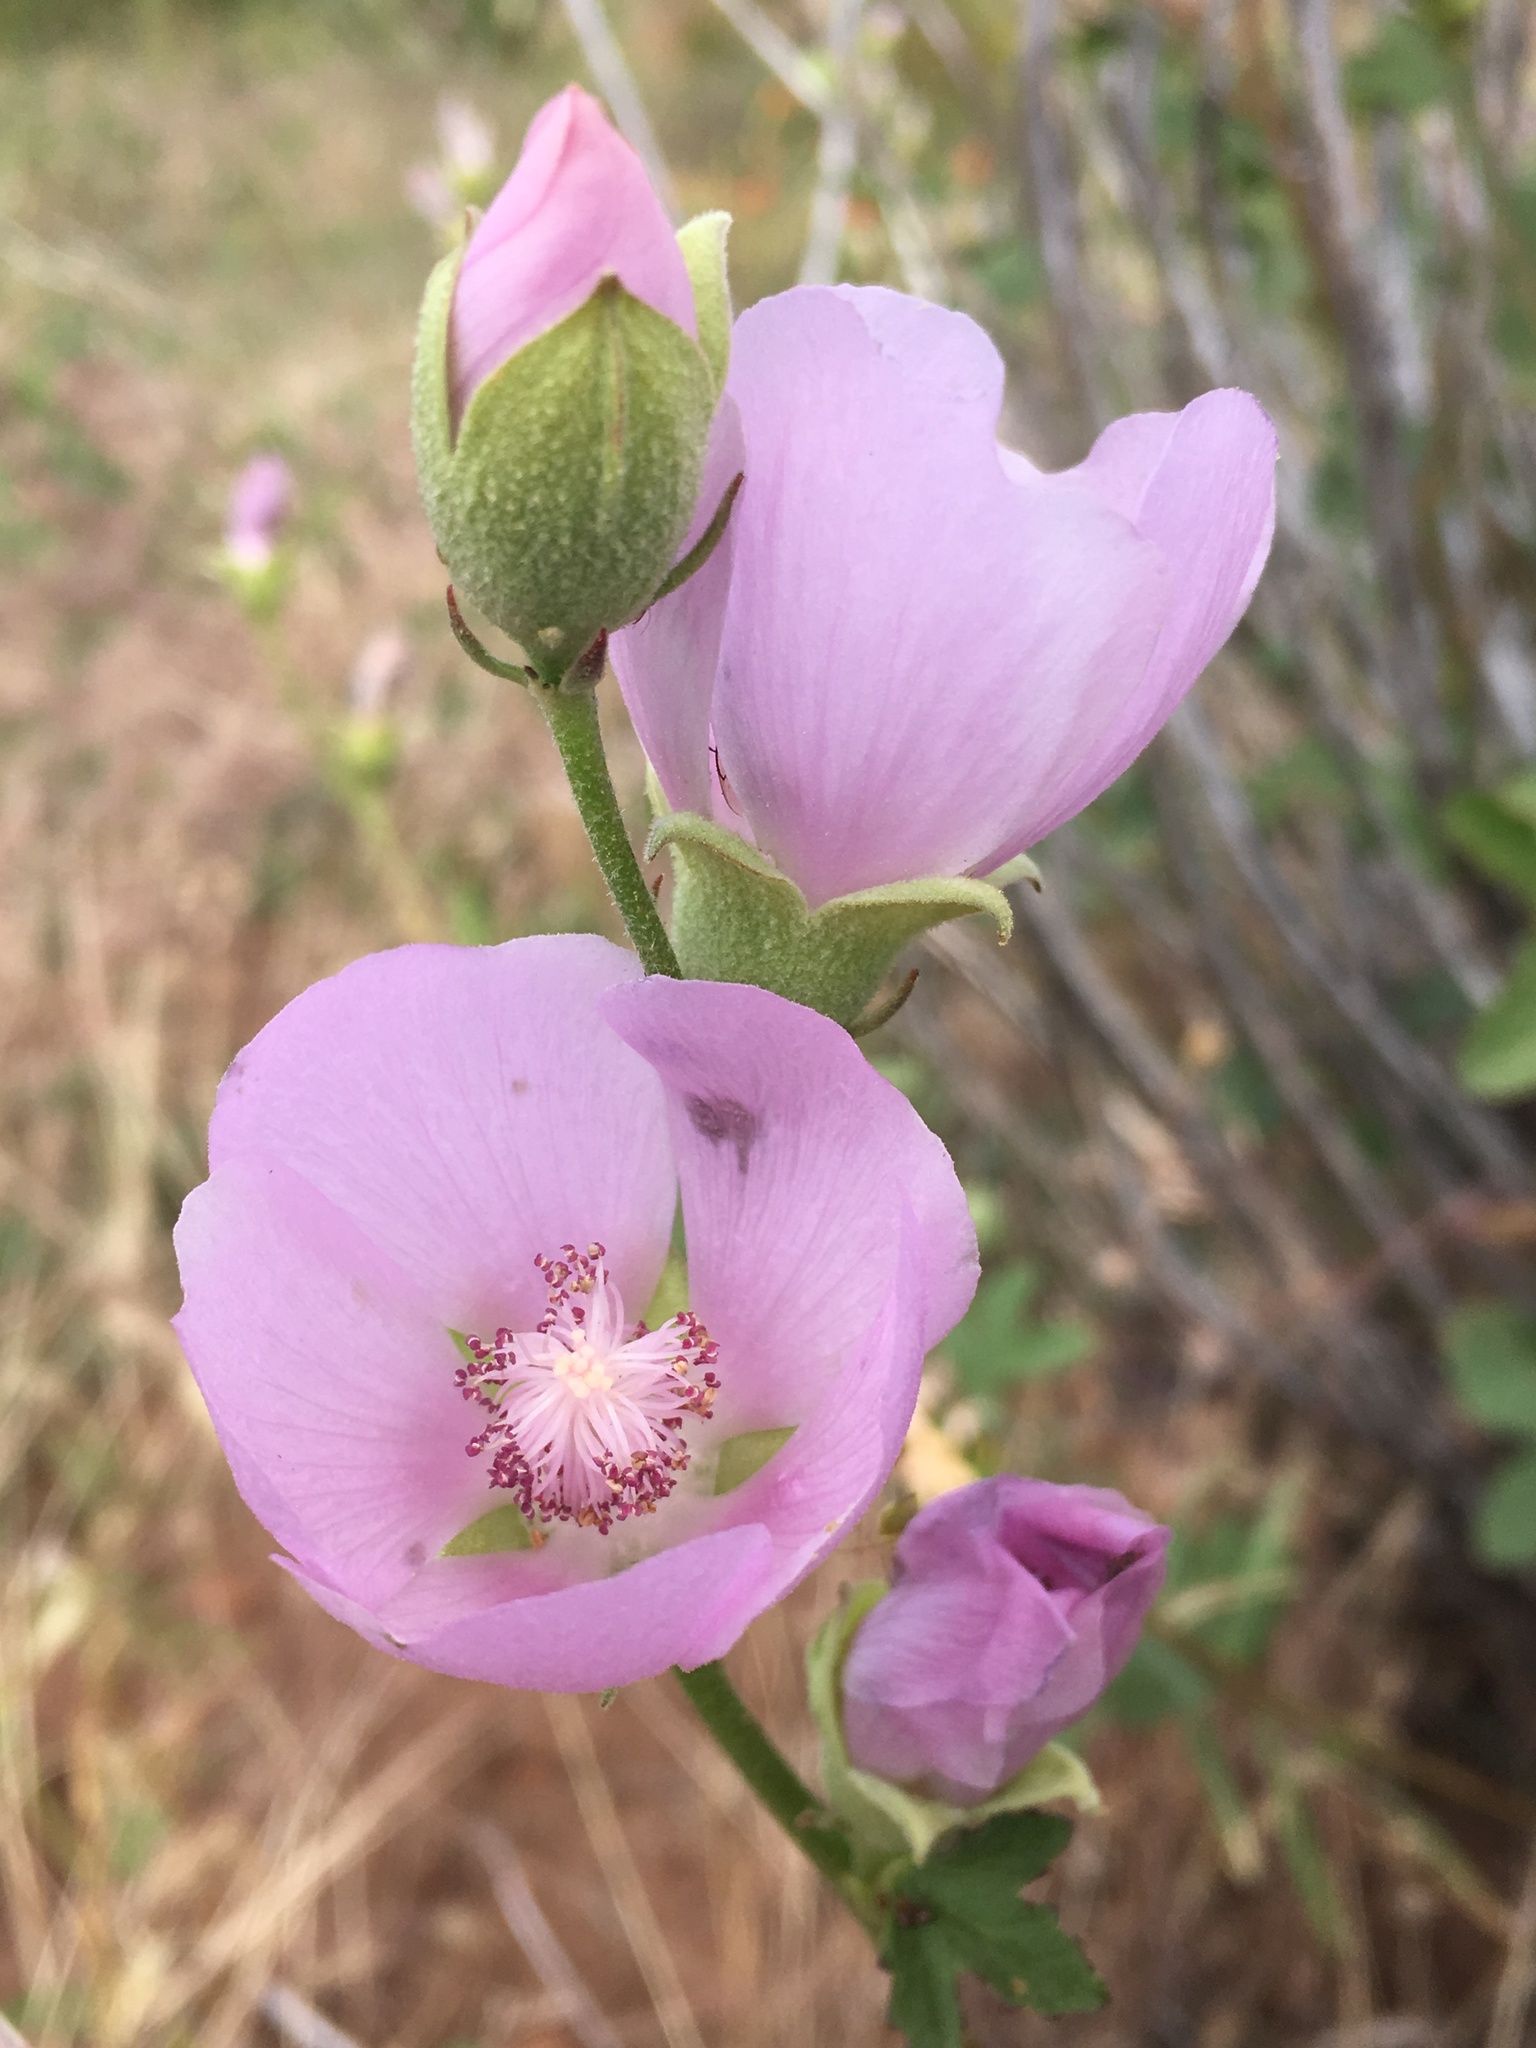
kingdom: Plantae
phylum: Tracheophyta
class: Magnoliopsida
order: Malvales
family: Malvaceae
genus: Iliamna
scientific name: Iliamna bakeri
